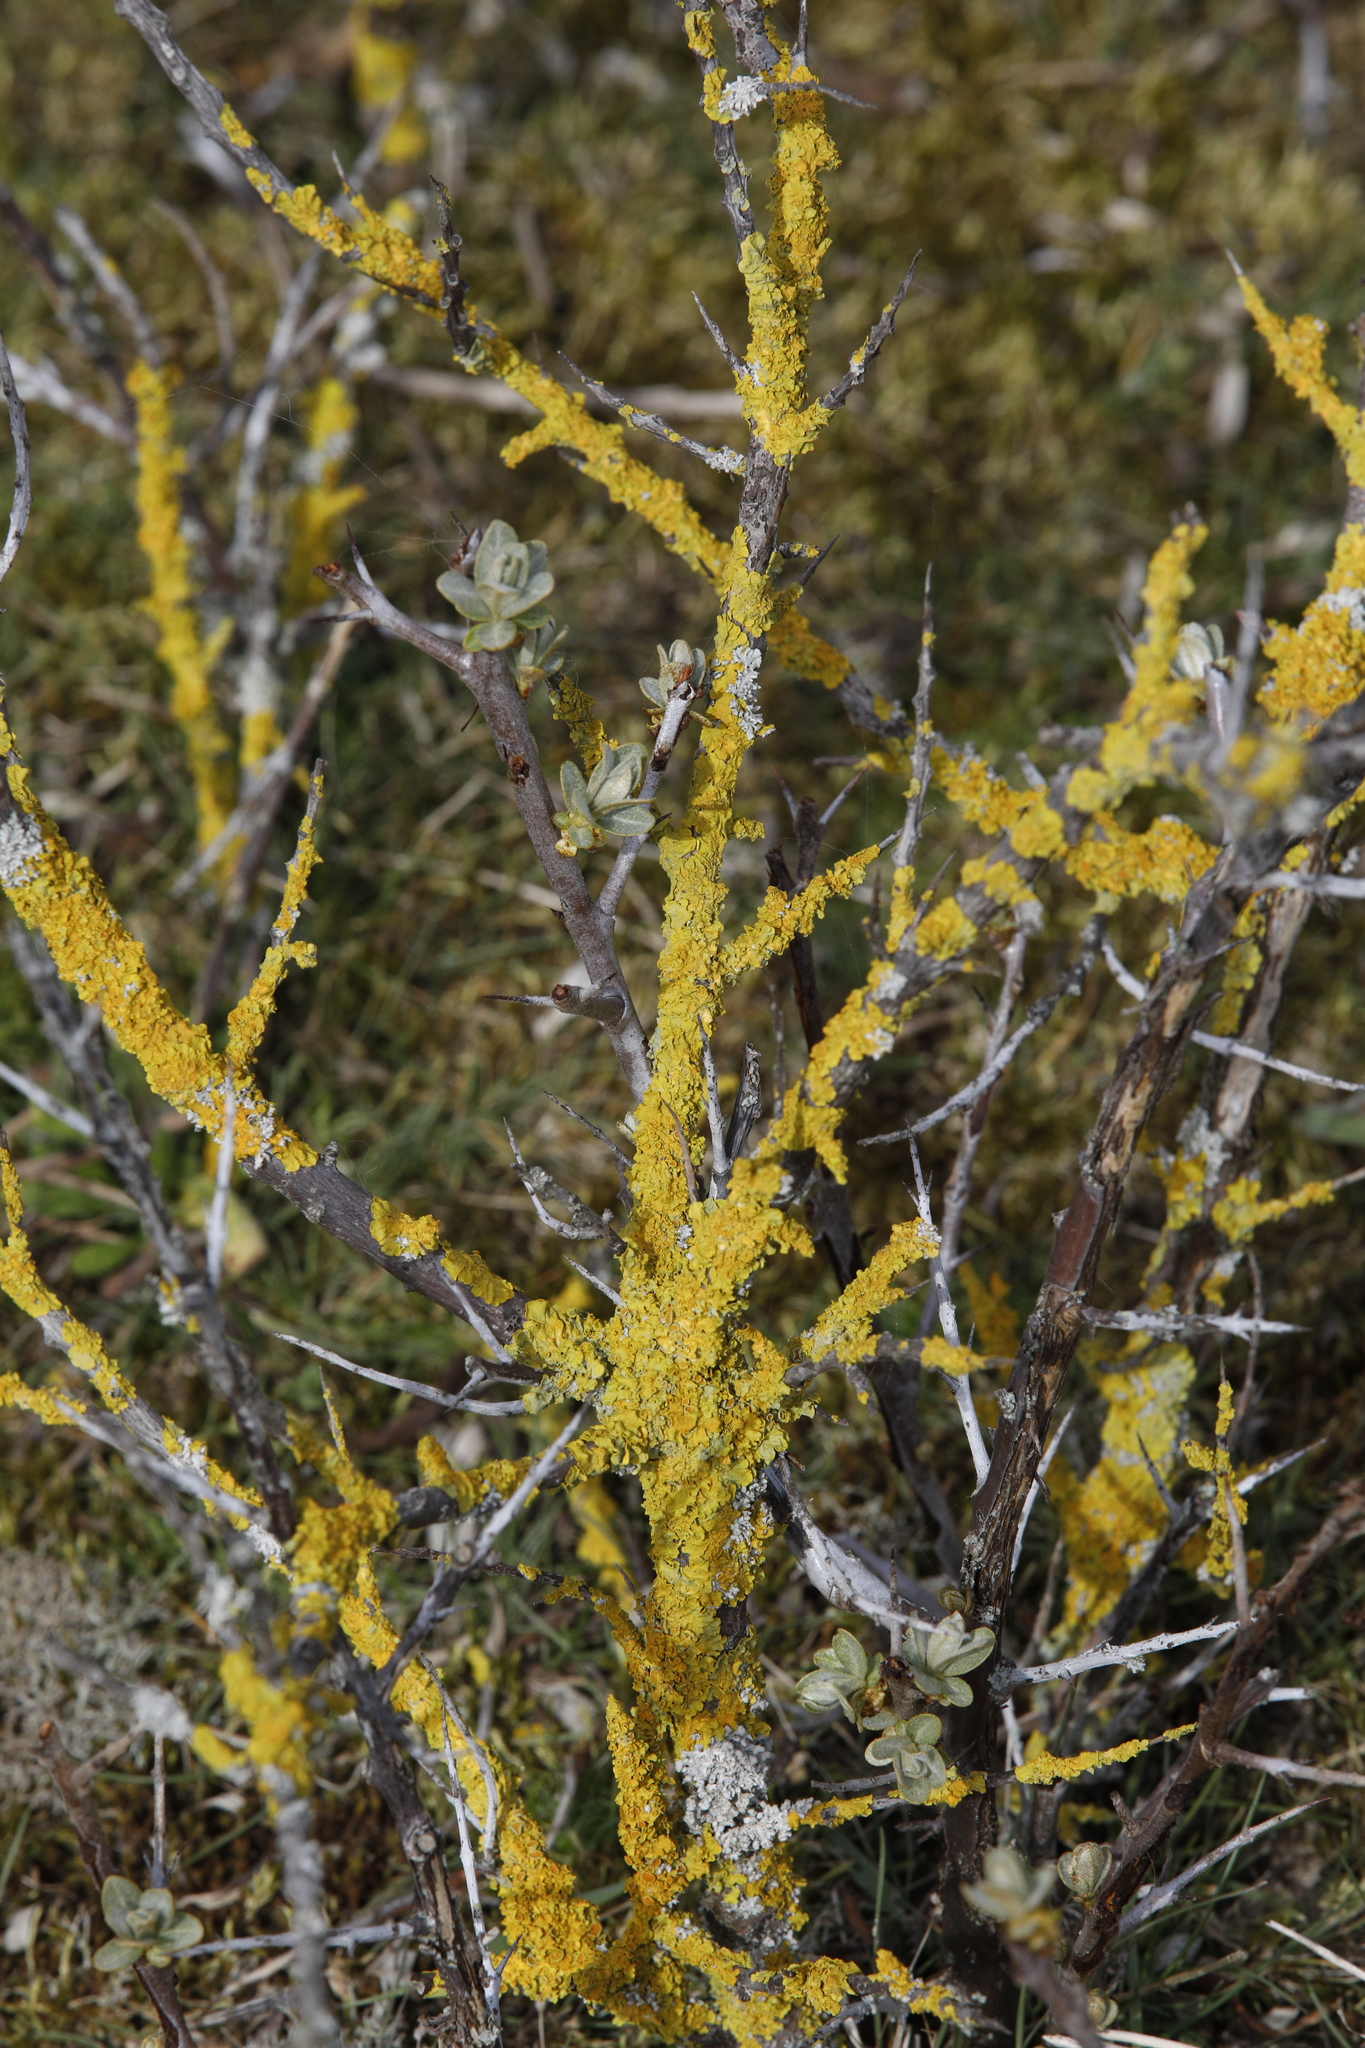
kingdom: Fungi
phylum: Ascomycota
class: Lecanoromycetes
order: Teloschistales
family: Teloschistaceae
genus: Xanthoria
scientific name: Xanthoria parietina
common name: Common orange lichen
